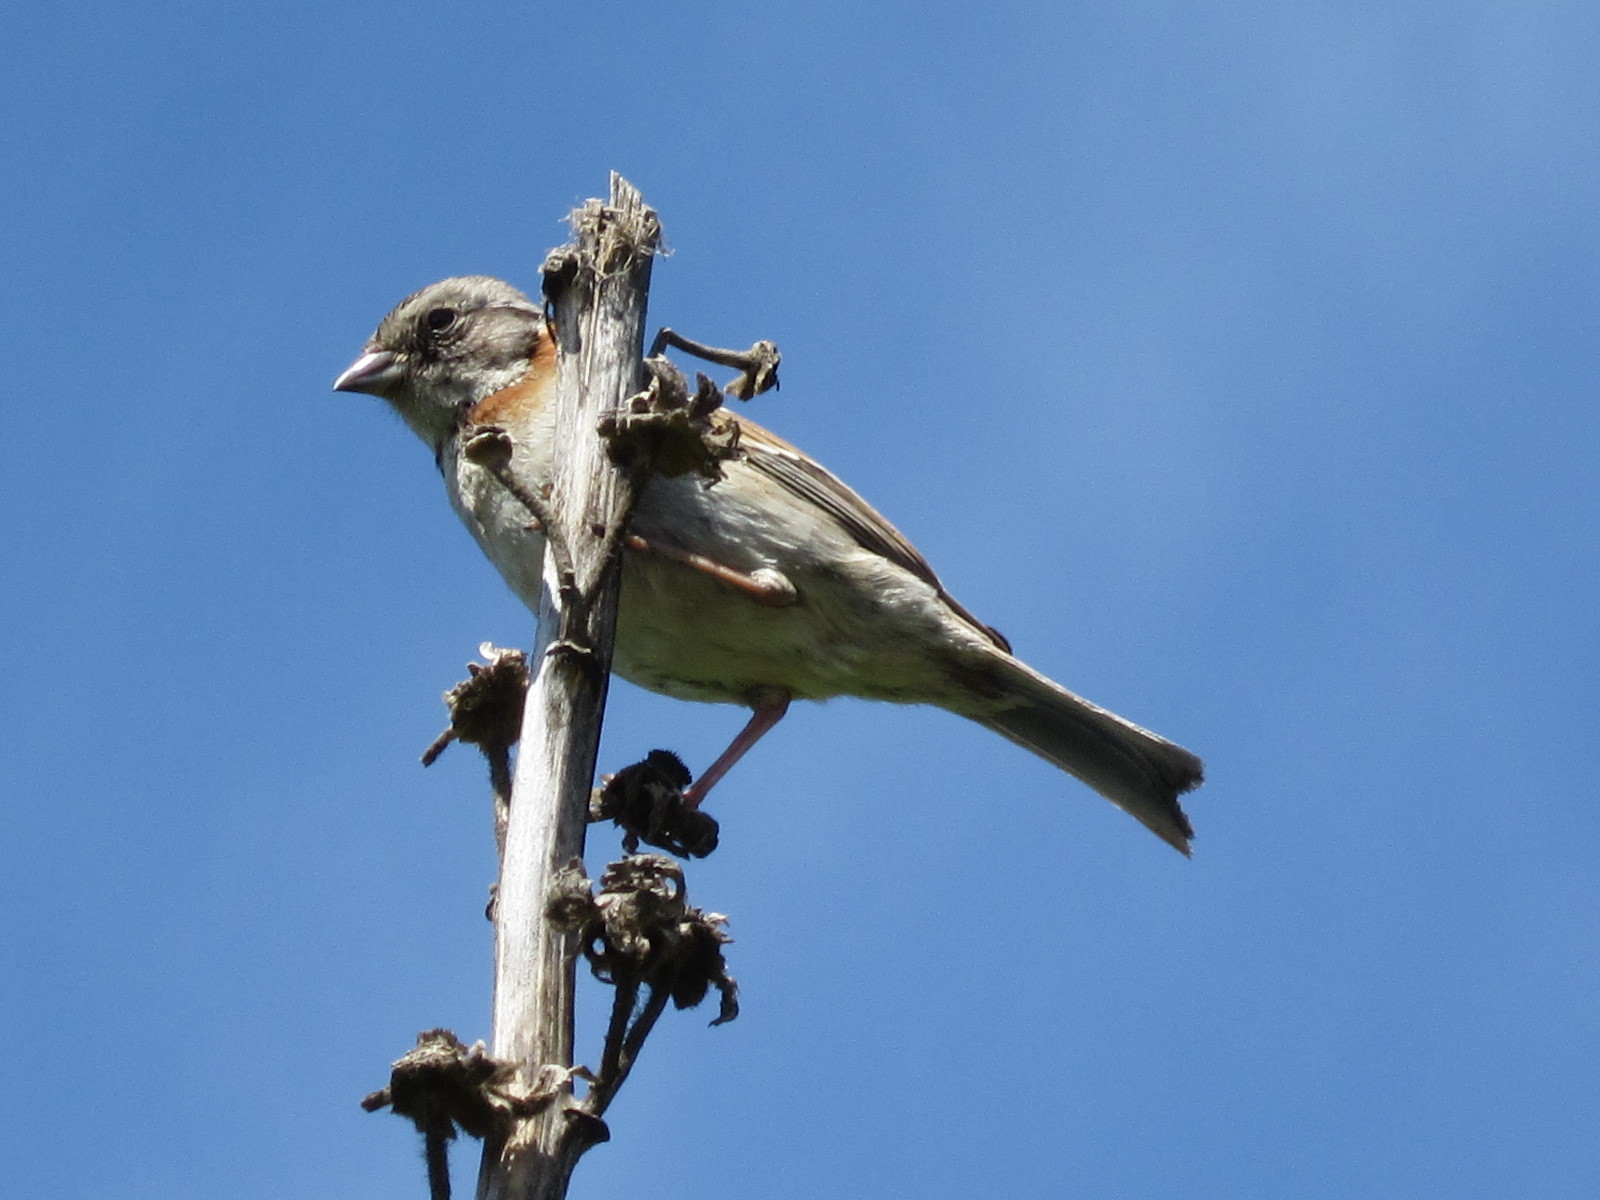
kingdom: Animalia
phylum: Chordata
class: Aves
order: Passeriformes
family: Passerellidae
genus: Zonotrichia
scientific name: Zonotrichia capensis
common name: Rufous-collared sparrow
